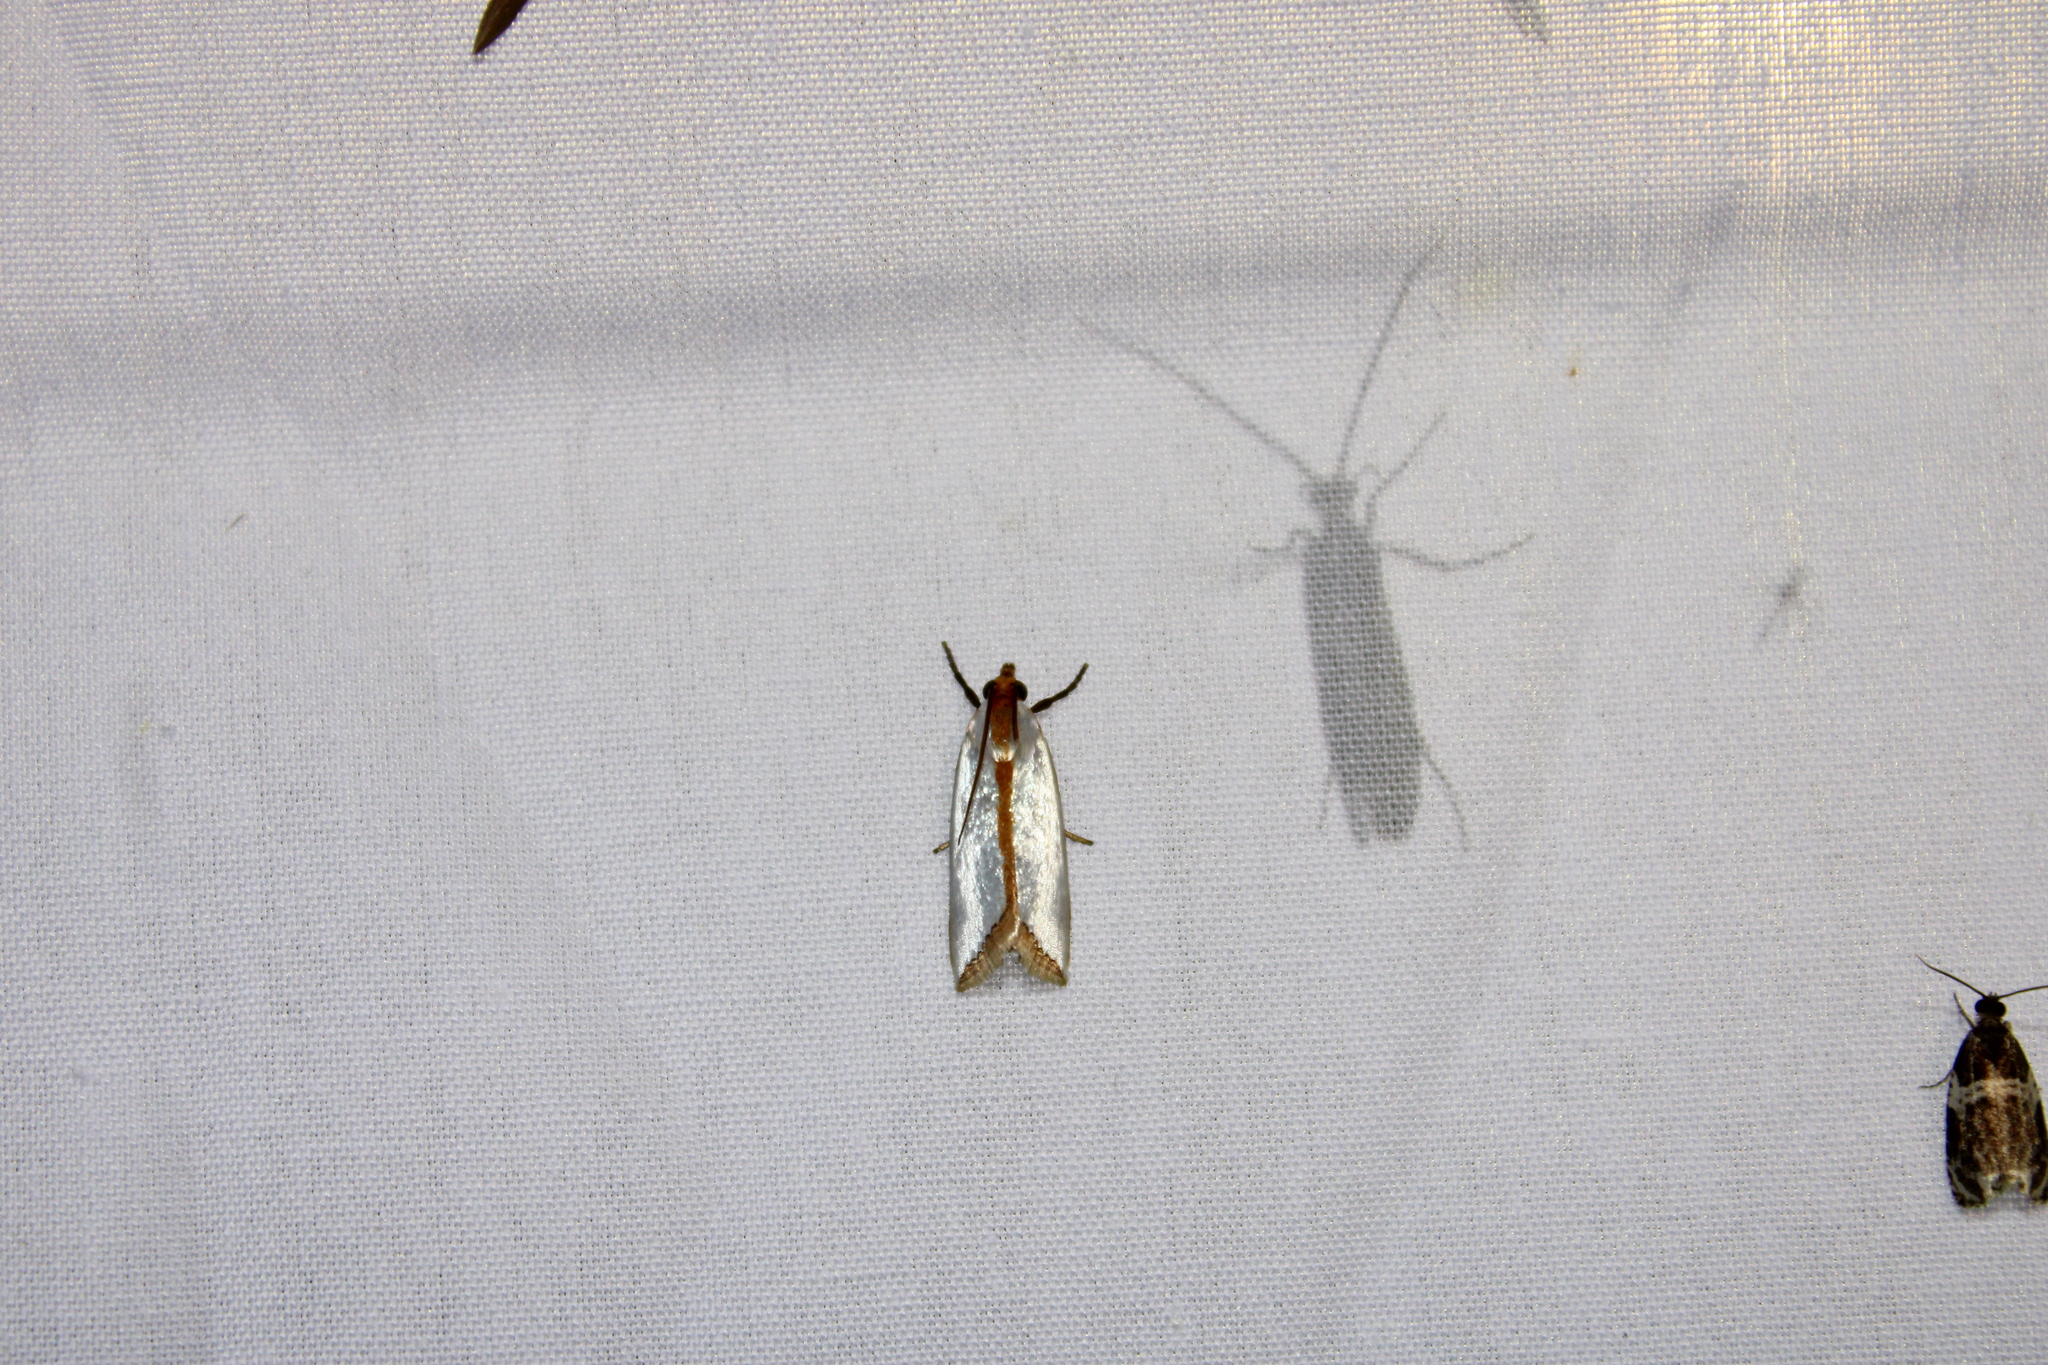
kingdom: Animalia
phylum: Arthropoda
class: Insecta
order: Lepidoptera
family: Crambidae
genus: Argyria
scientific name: Argyria
